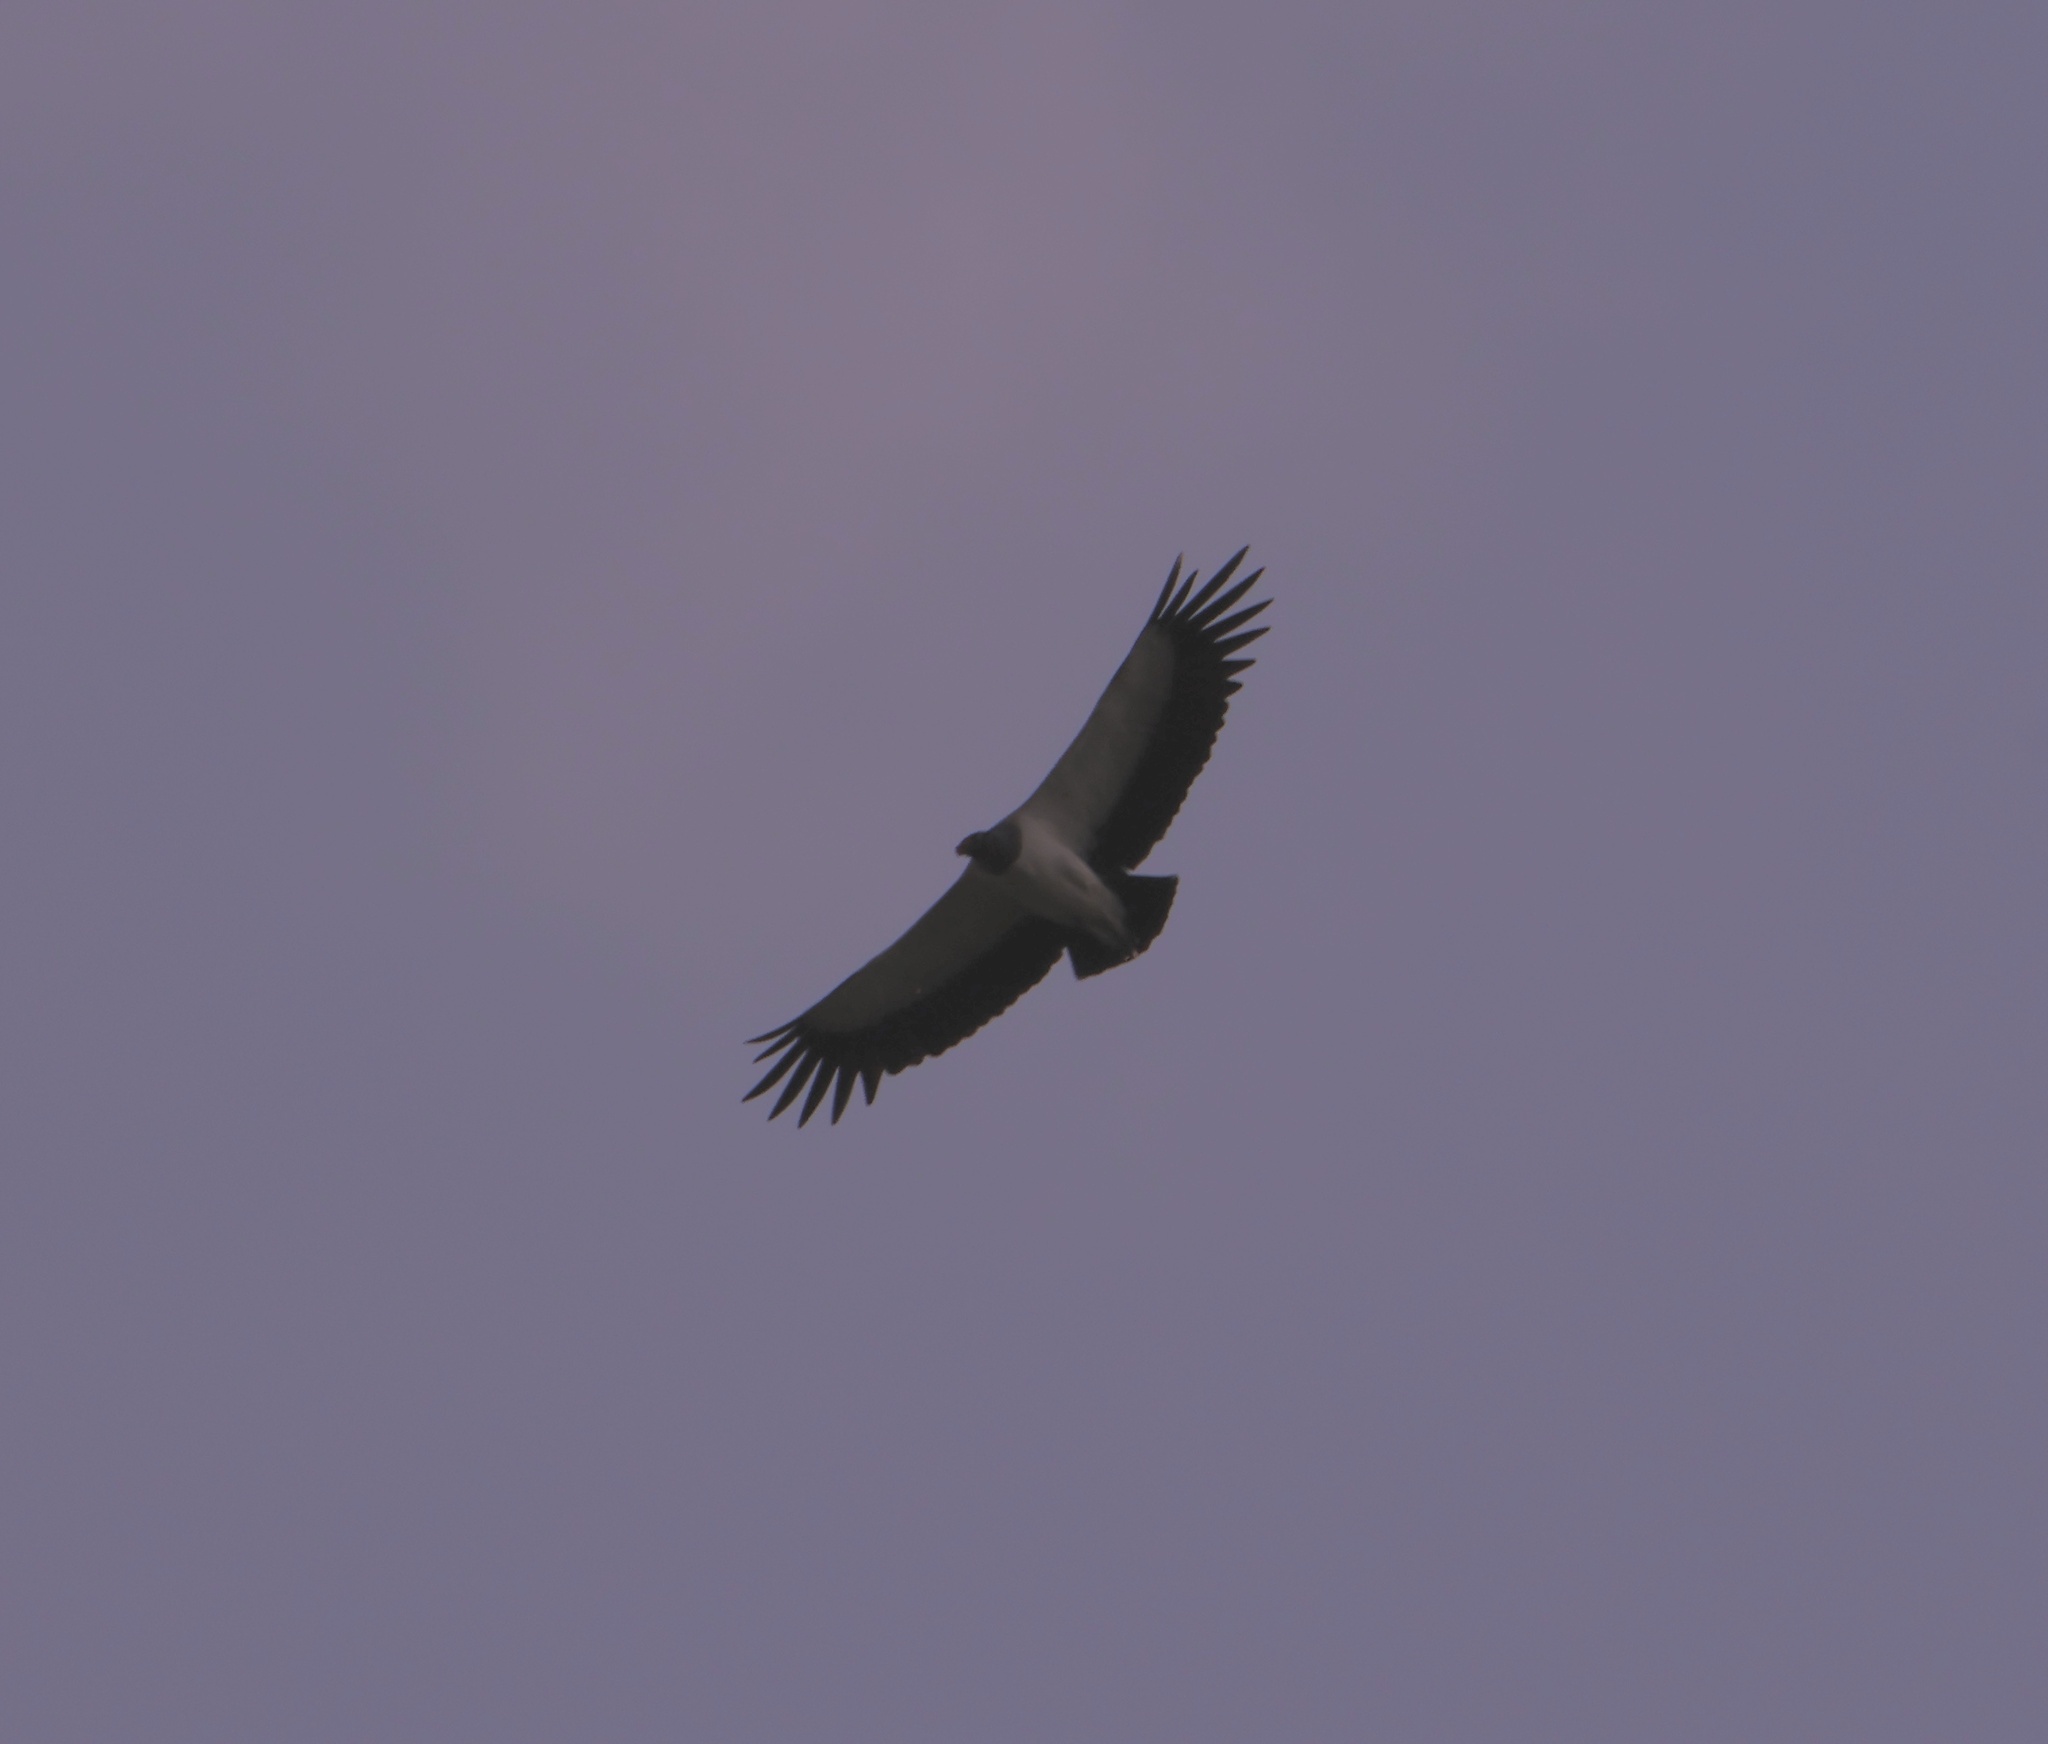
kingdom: Animalia
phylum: Chordata
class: Aves
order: Accipitriformes
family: Cathartidae
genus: Sarcoramphus
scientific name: Sarcoramphus papa
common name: King vulture
